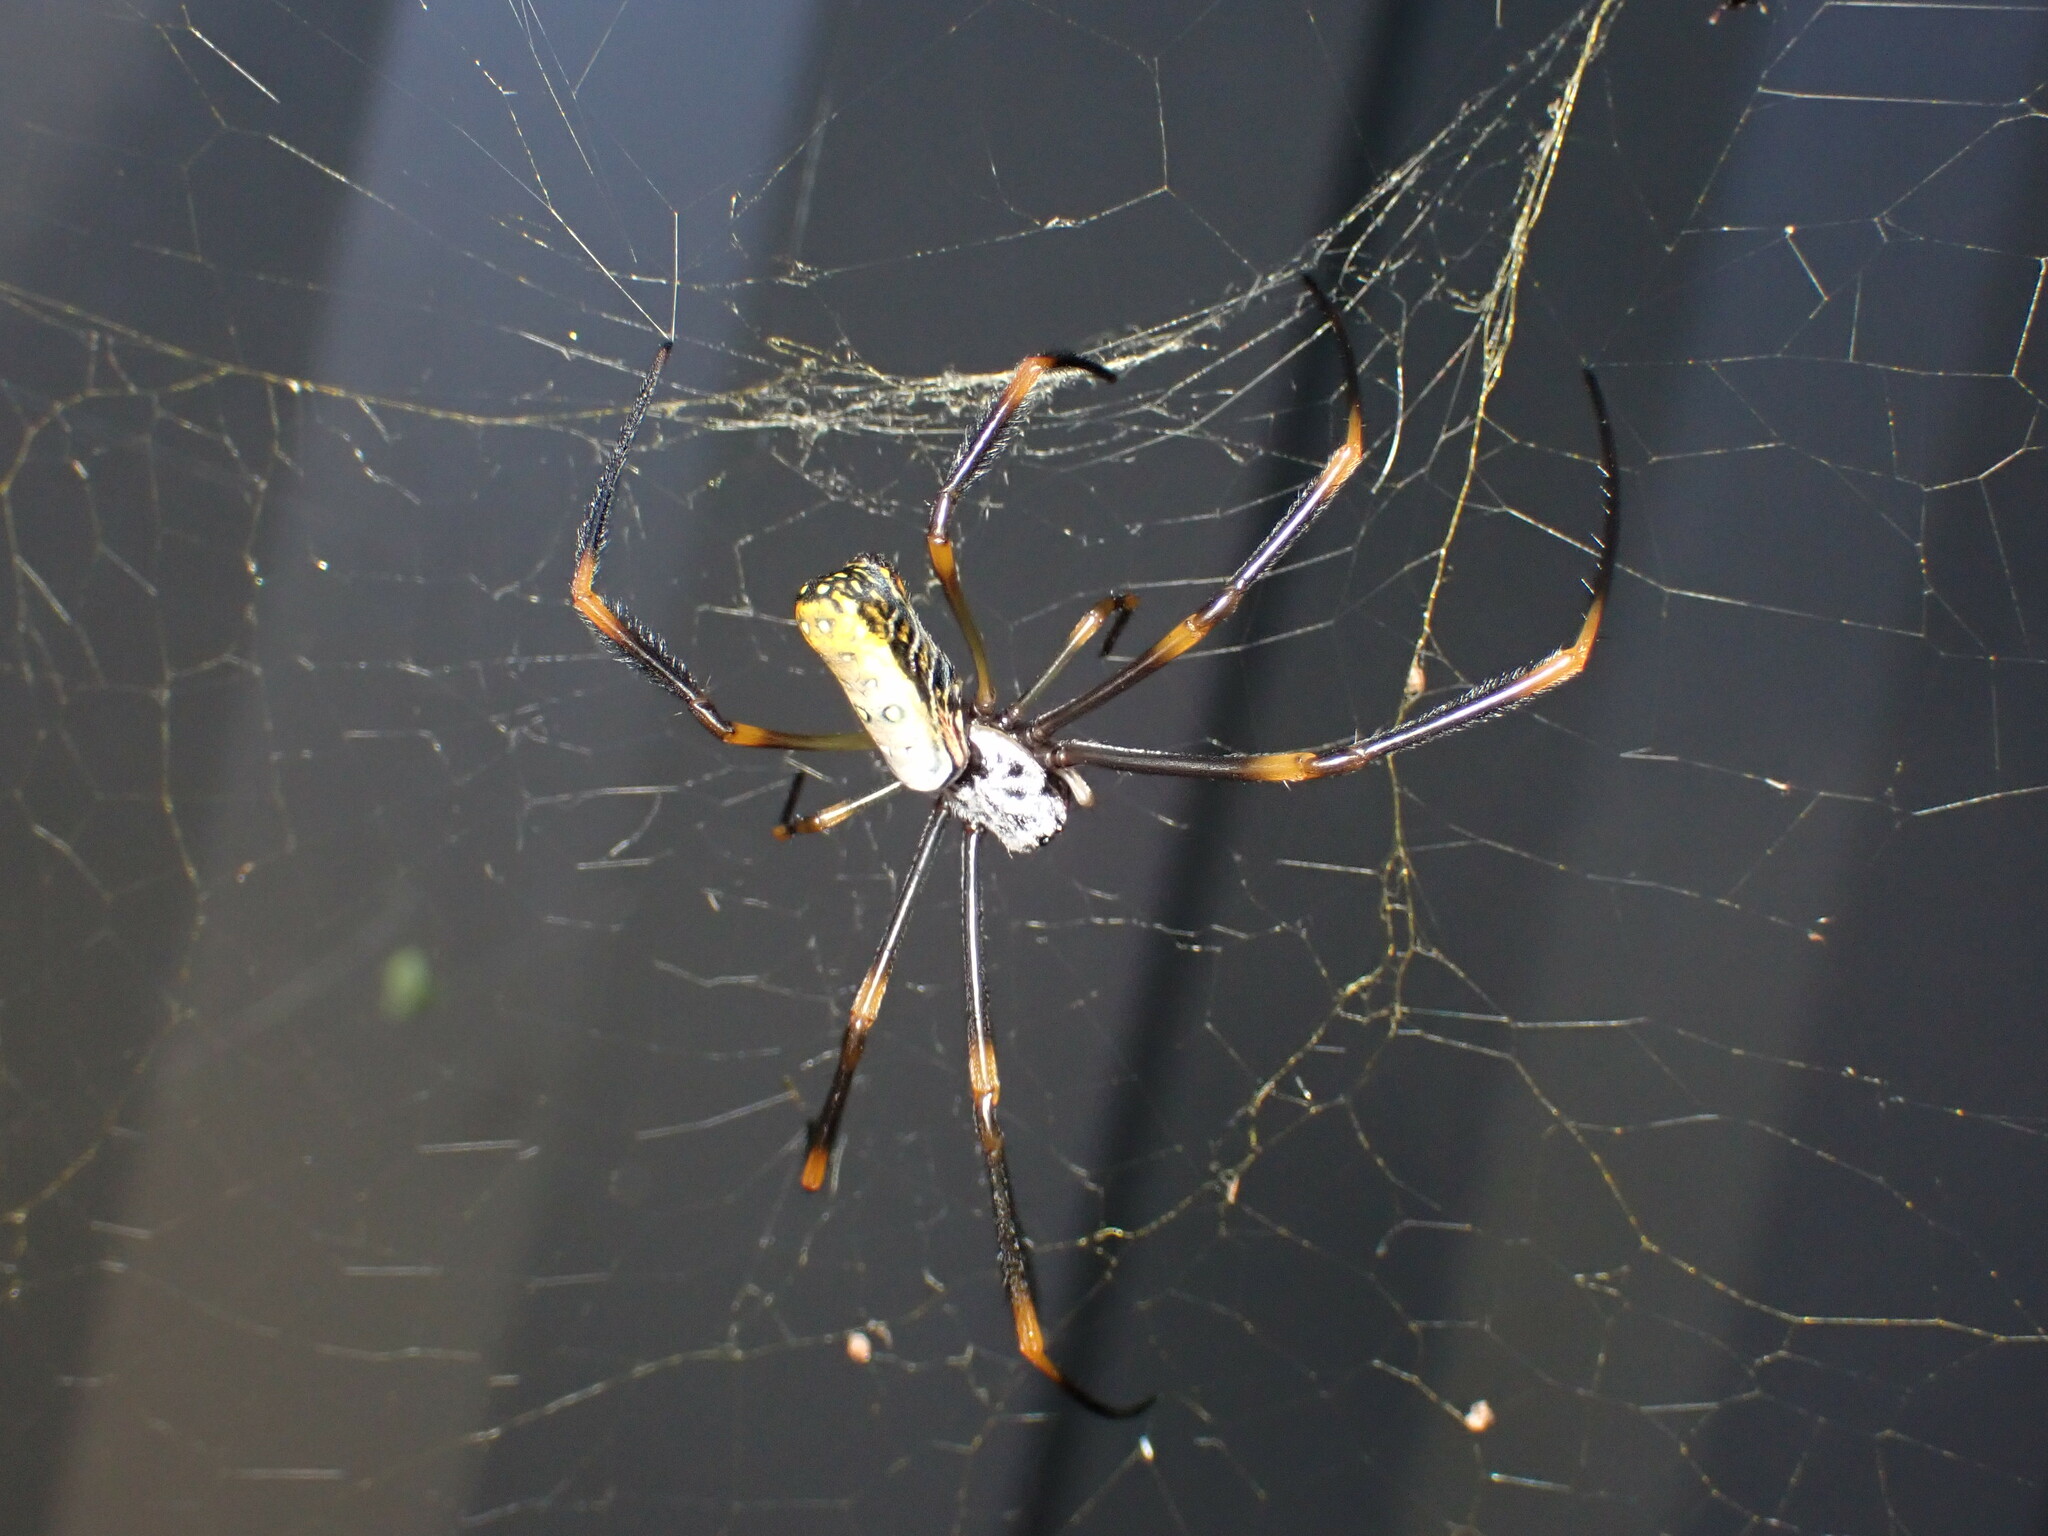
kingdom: Animalia
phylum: Arthropoda
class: Arachnida
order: Araneae
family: Araneidae
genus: Trichonephila
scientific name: Trichonephila plumipes
